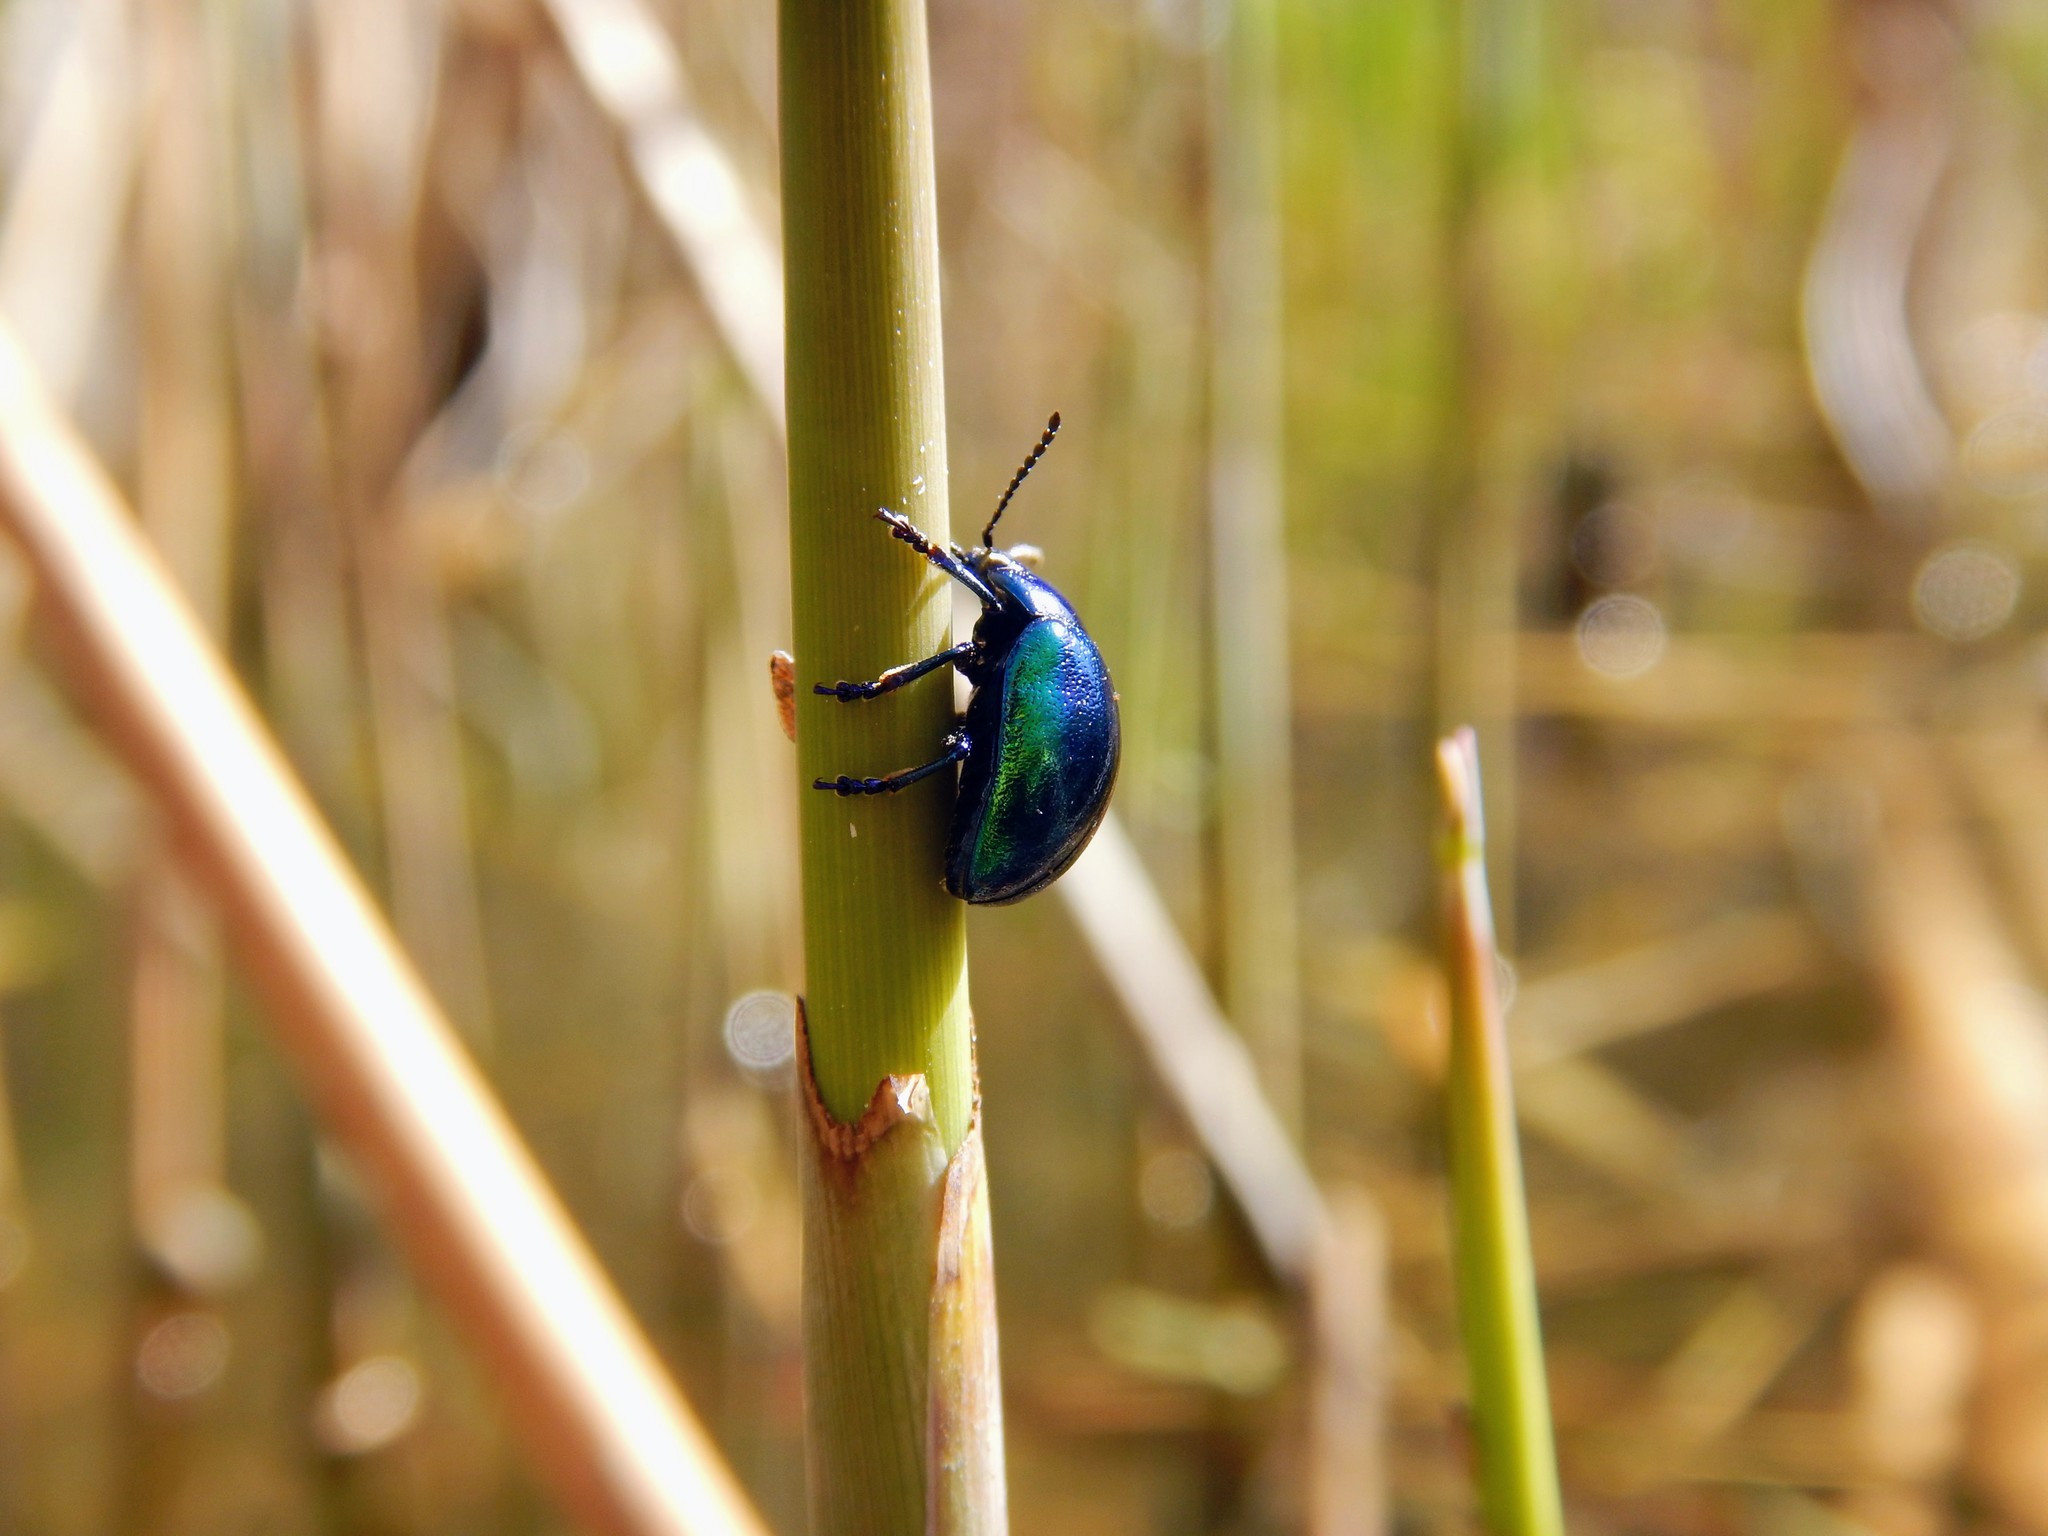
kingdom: Animalia
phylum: Arthropoda
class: Insecta
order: Coleoptera
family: Chrysomelidae
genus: Chrysolina
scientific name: Chrysolina coerulans
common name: Blue mint beetle
